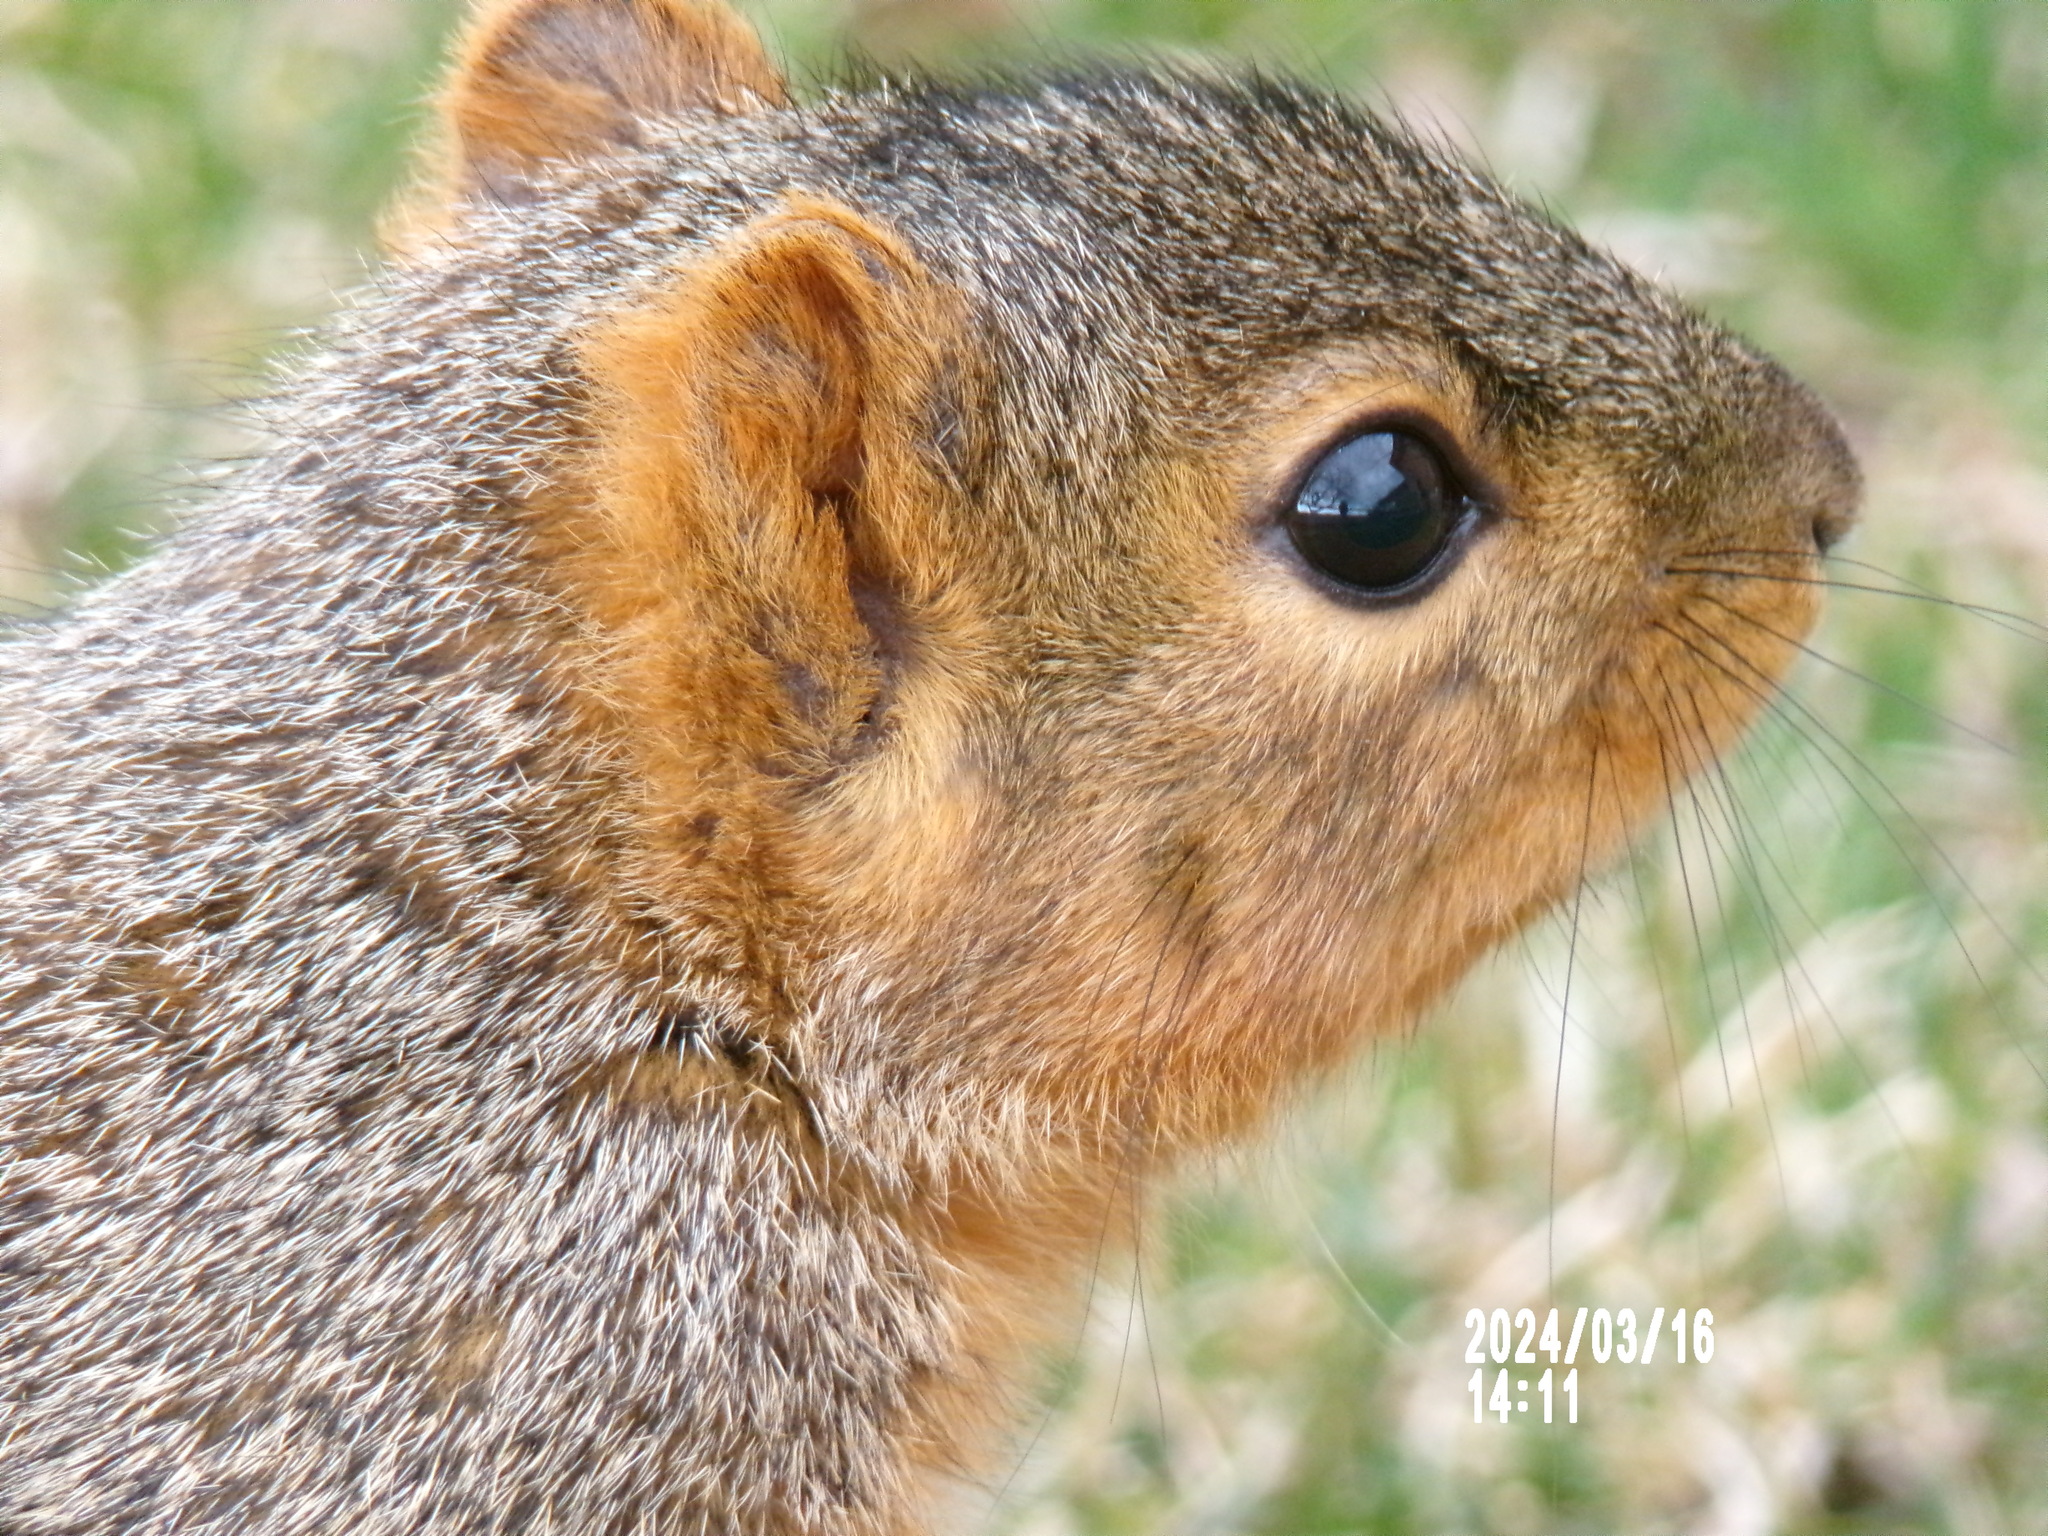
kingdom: Animalia
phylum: Chordata
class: Mammalia
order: Rodentia
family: Sciuridae
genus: Sciurus
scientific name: Sciurus niger
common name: Fox squirrel
